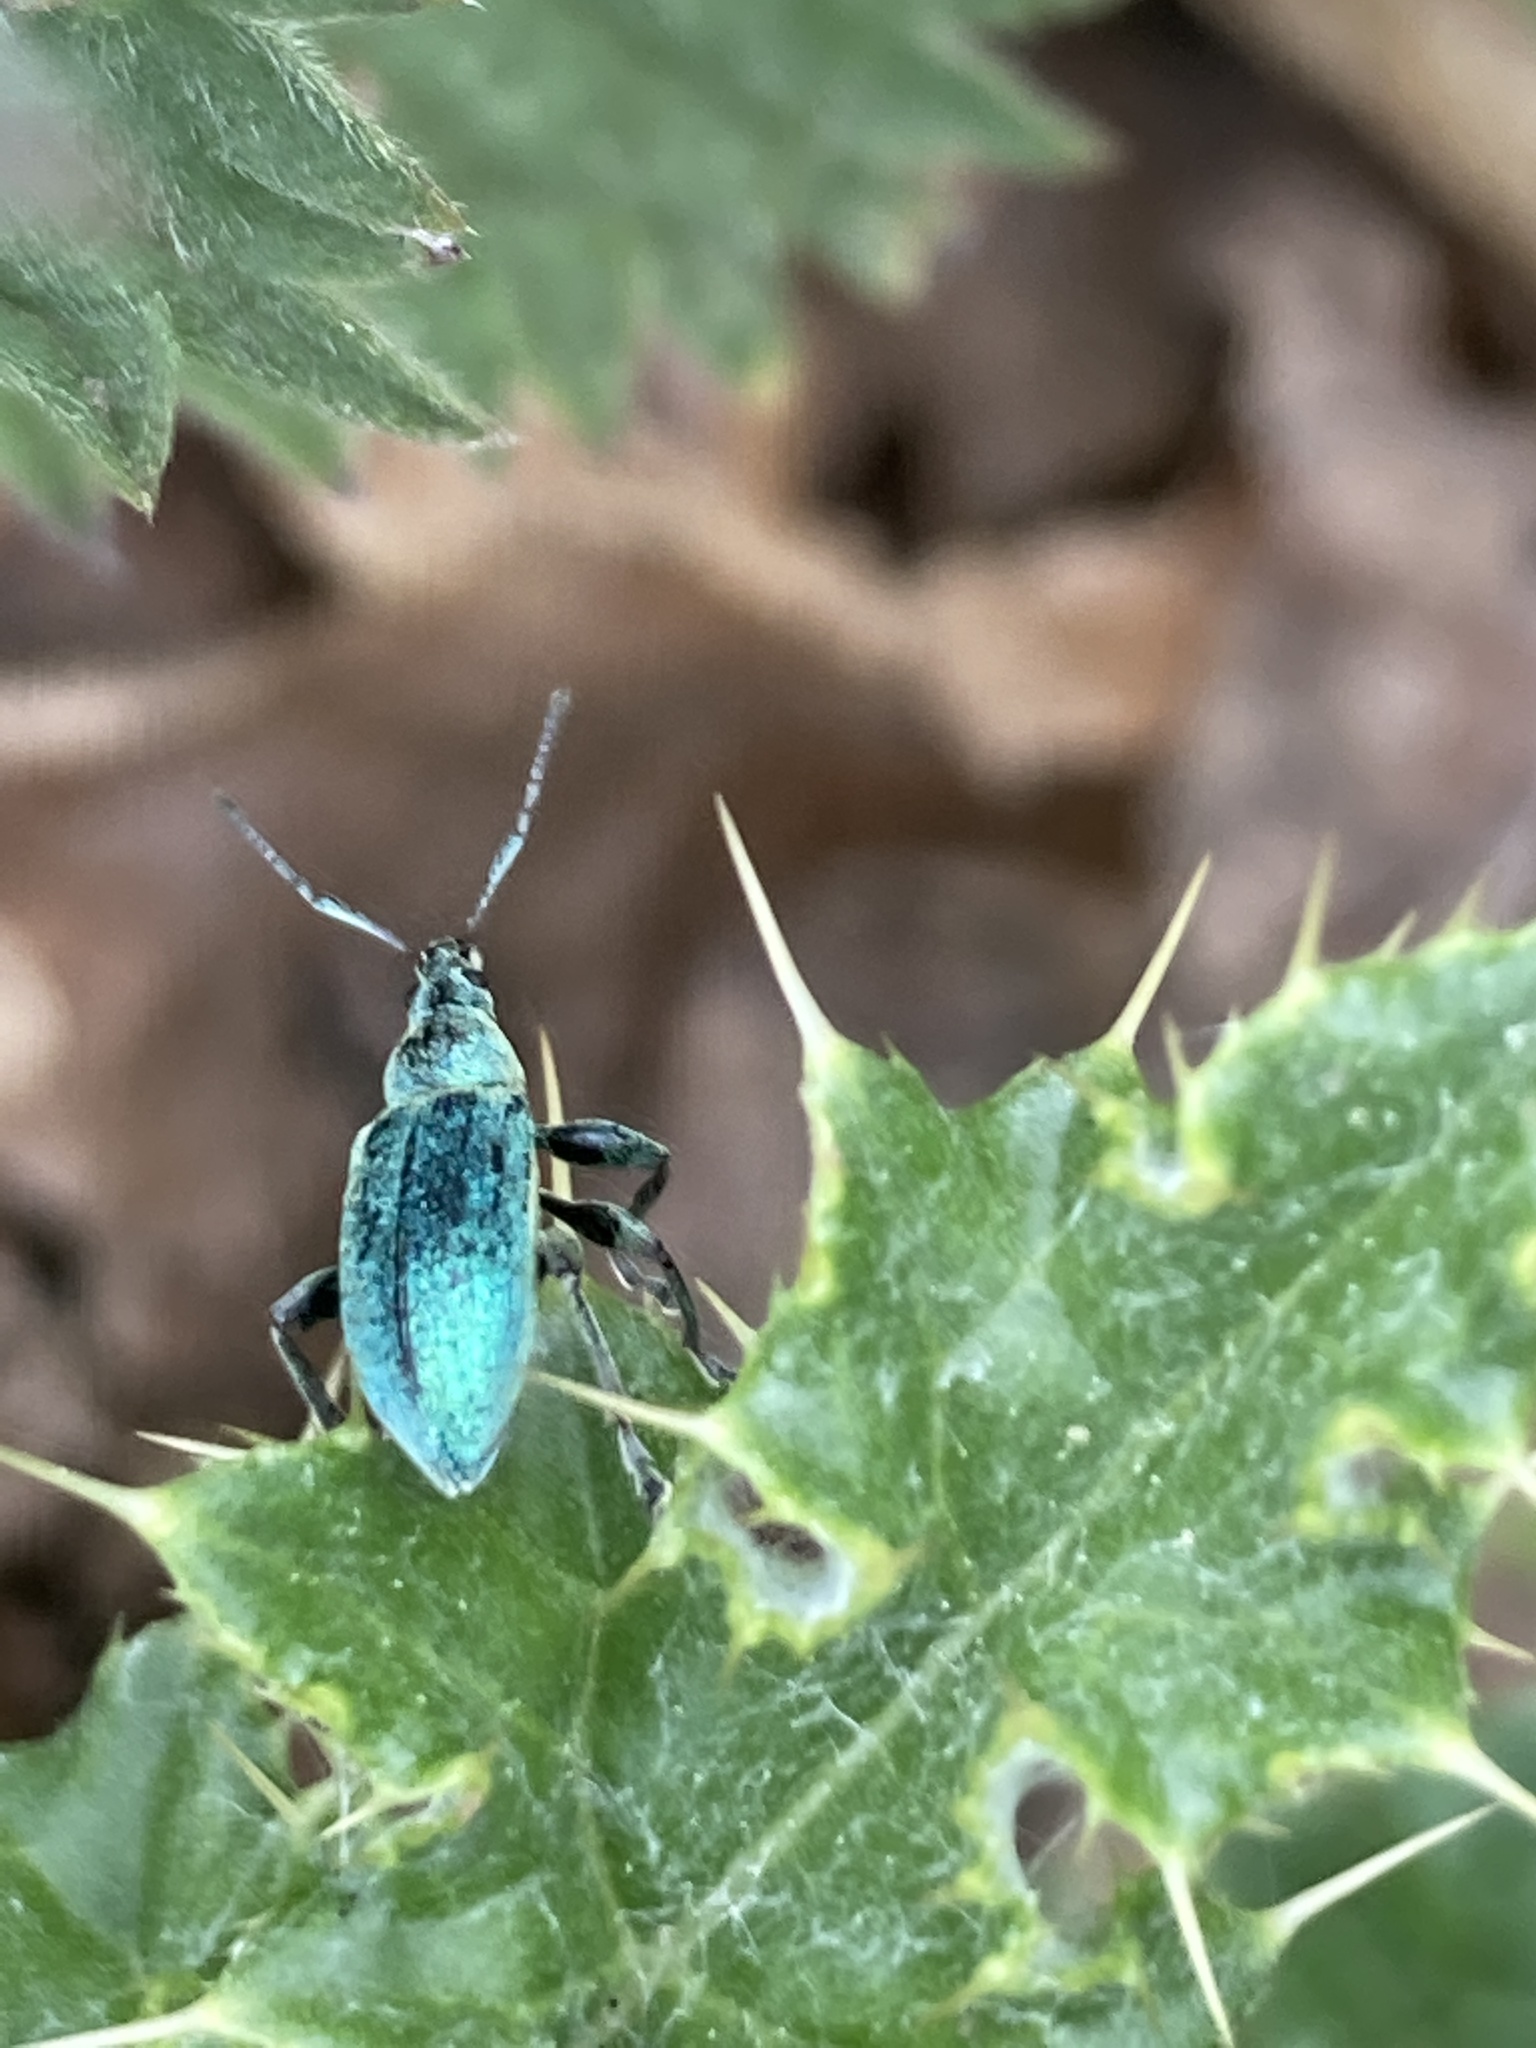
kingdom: Animalia
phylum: Arthropoda
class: Insecta
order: Coleoptera
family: Curculionidae
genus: Phyllobius
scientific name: Phyllobius pomaceus
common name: Green nettle weevil
